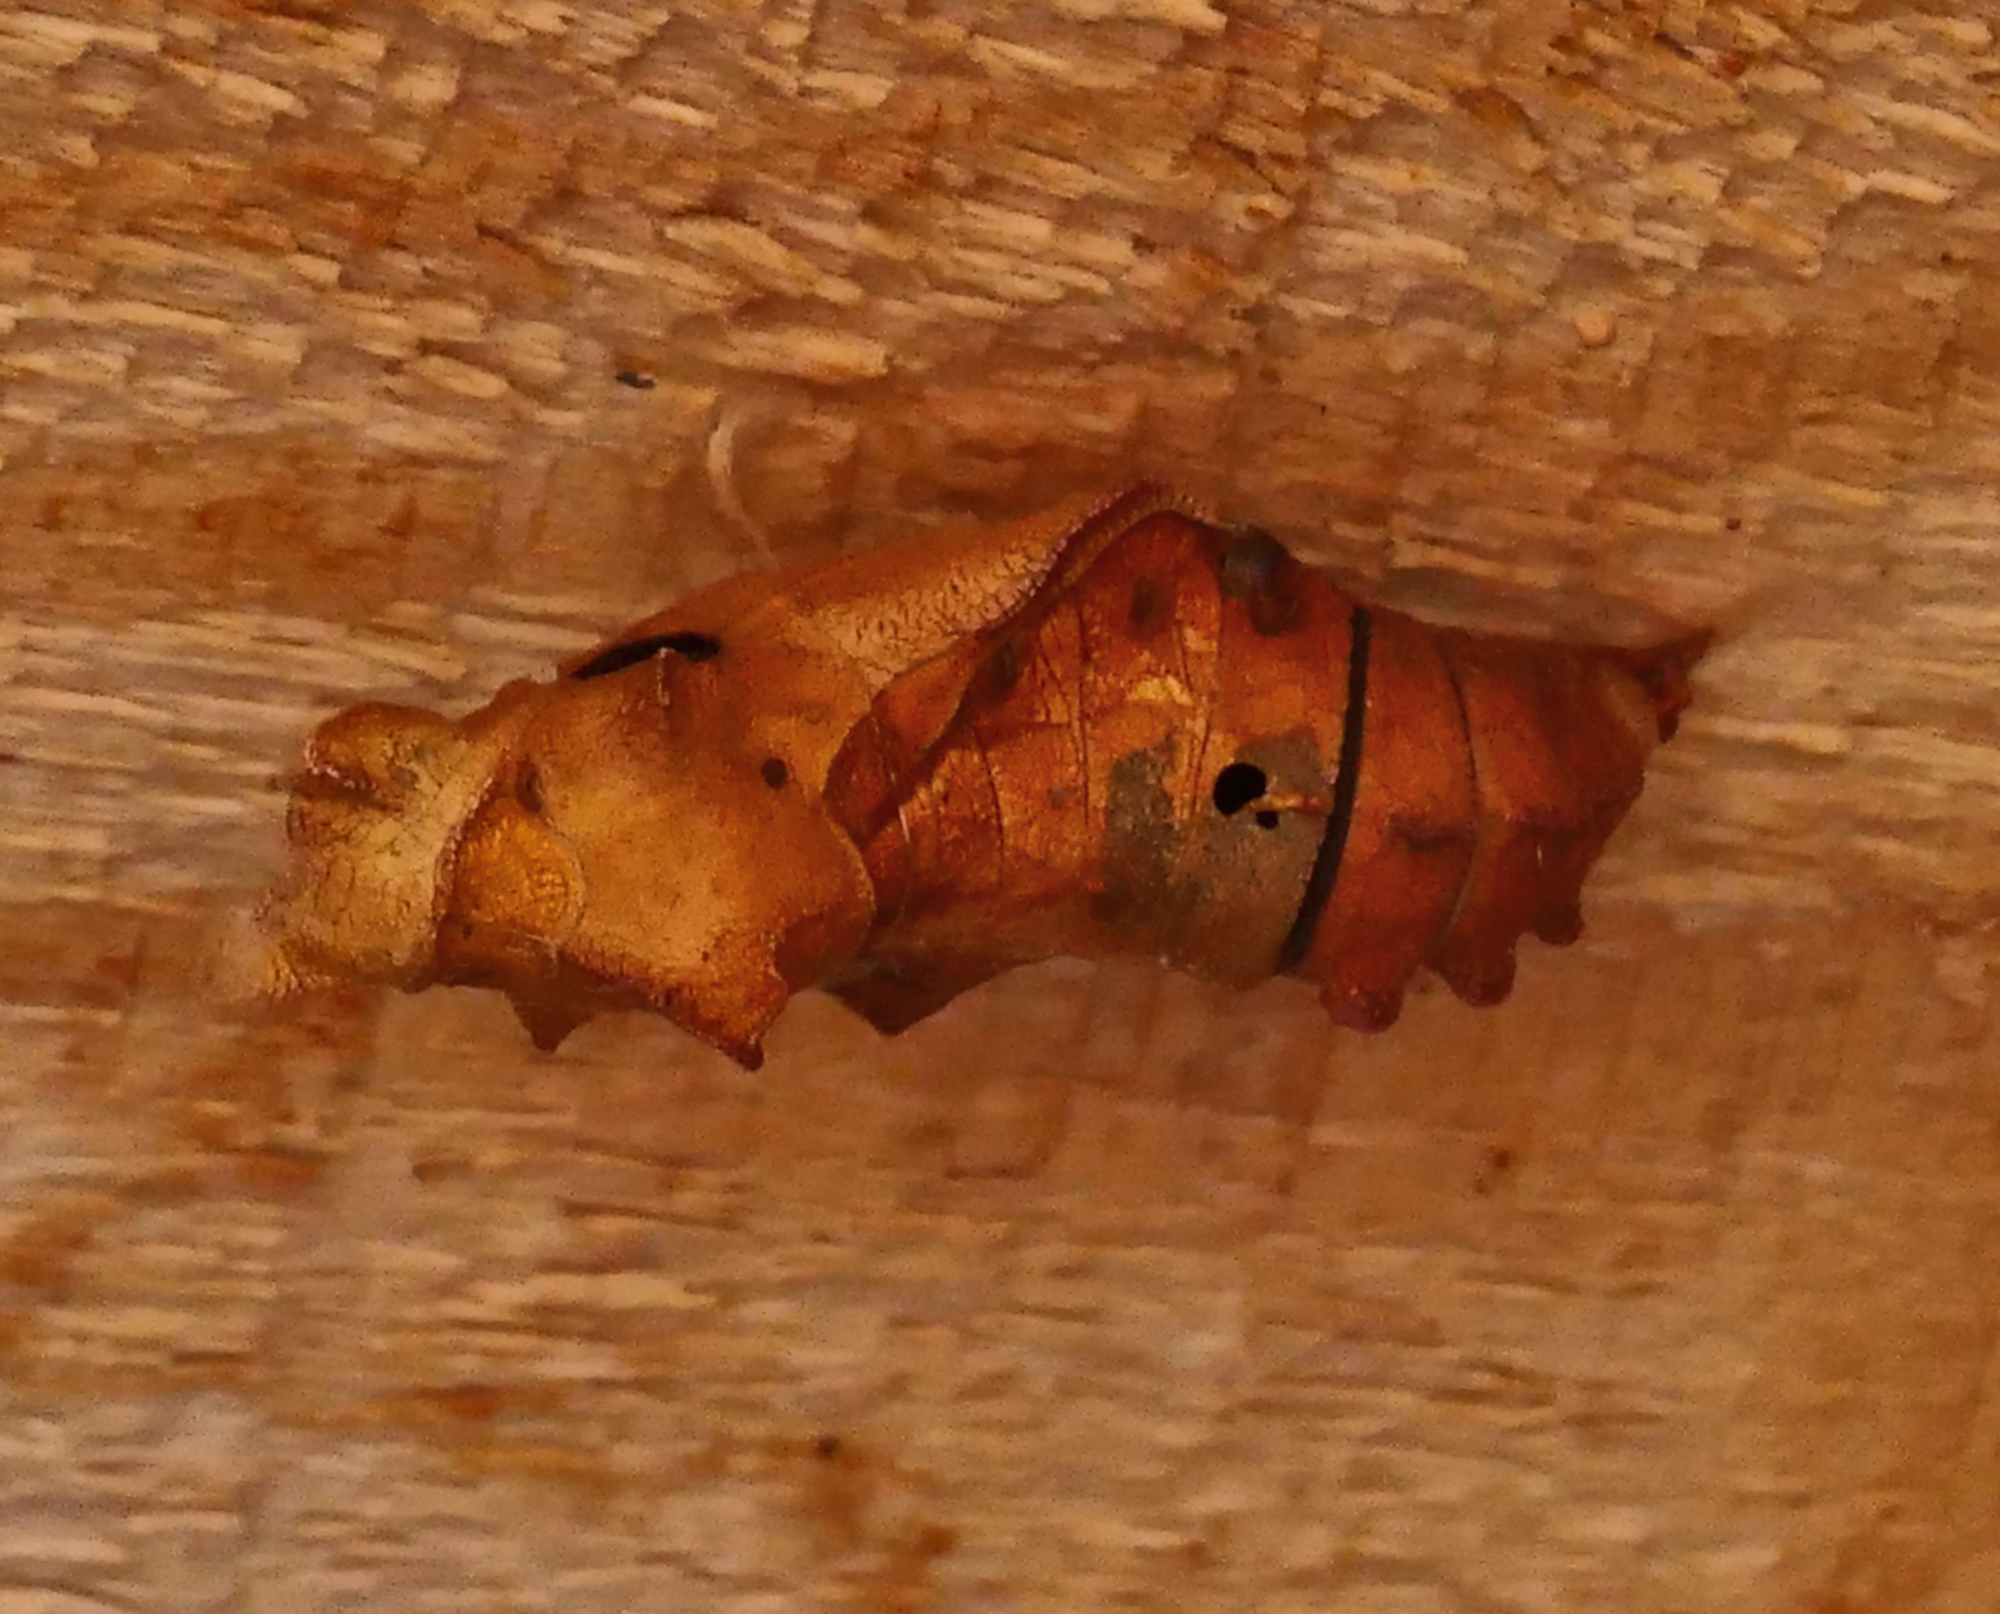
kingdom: Animalia
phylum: Arthropoda
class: Insecta
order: Lepidoptera
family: Papilionidae
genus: Battus
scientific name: Battus philenor
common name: Pipevine swallowtail
